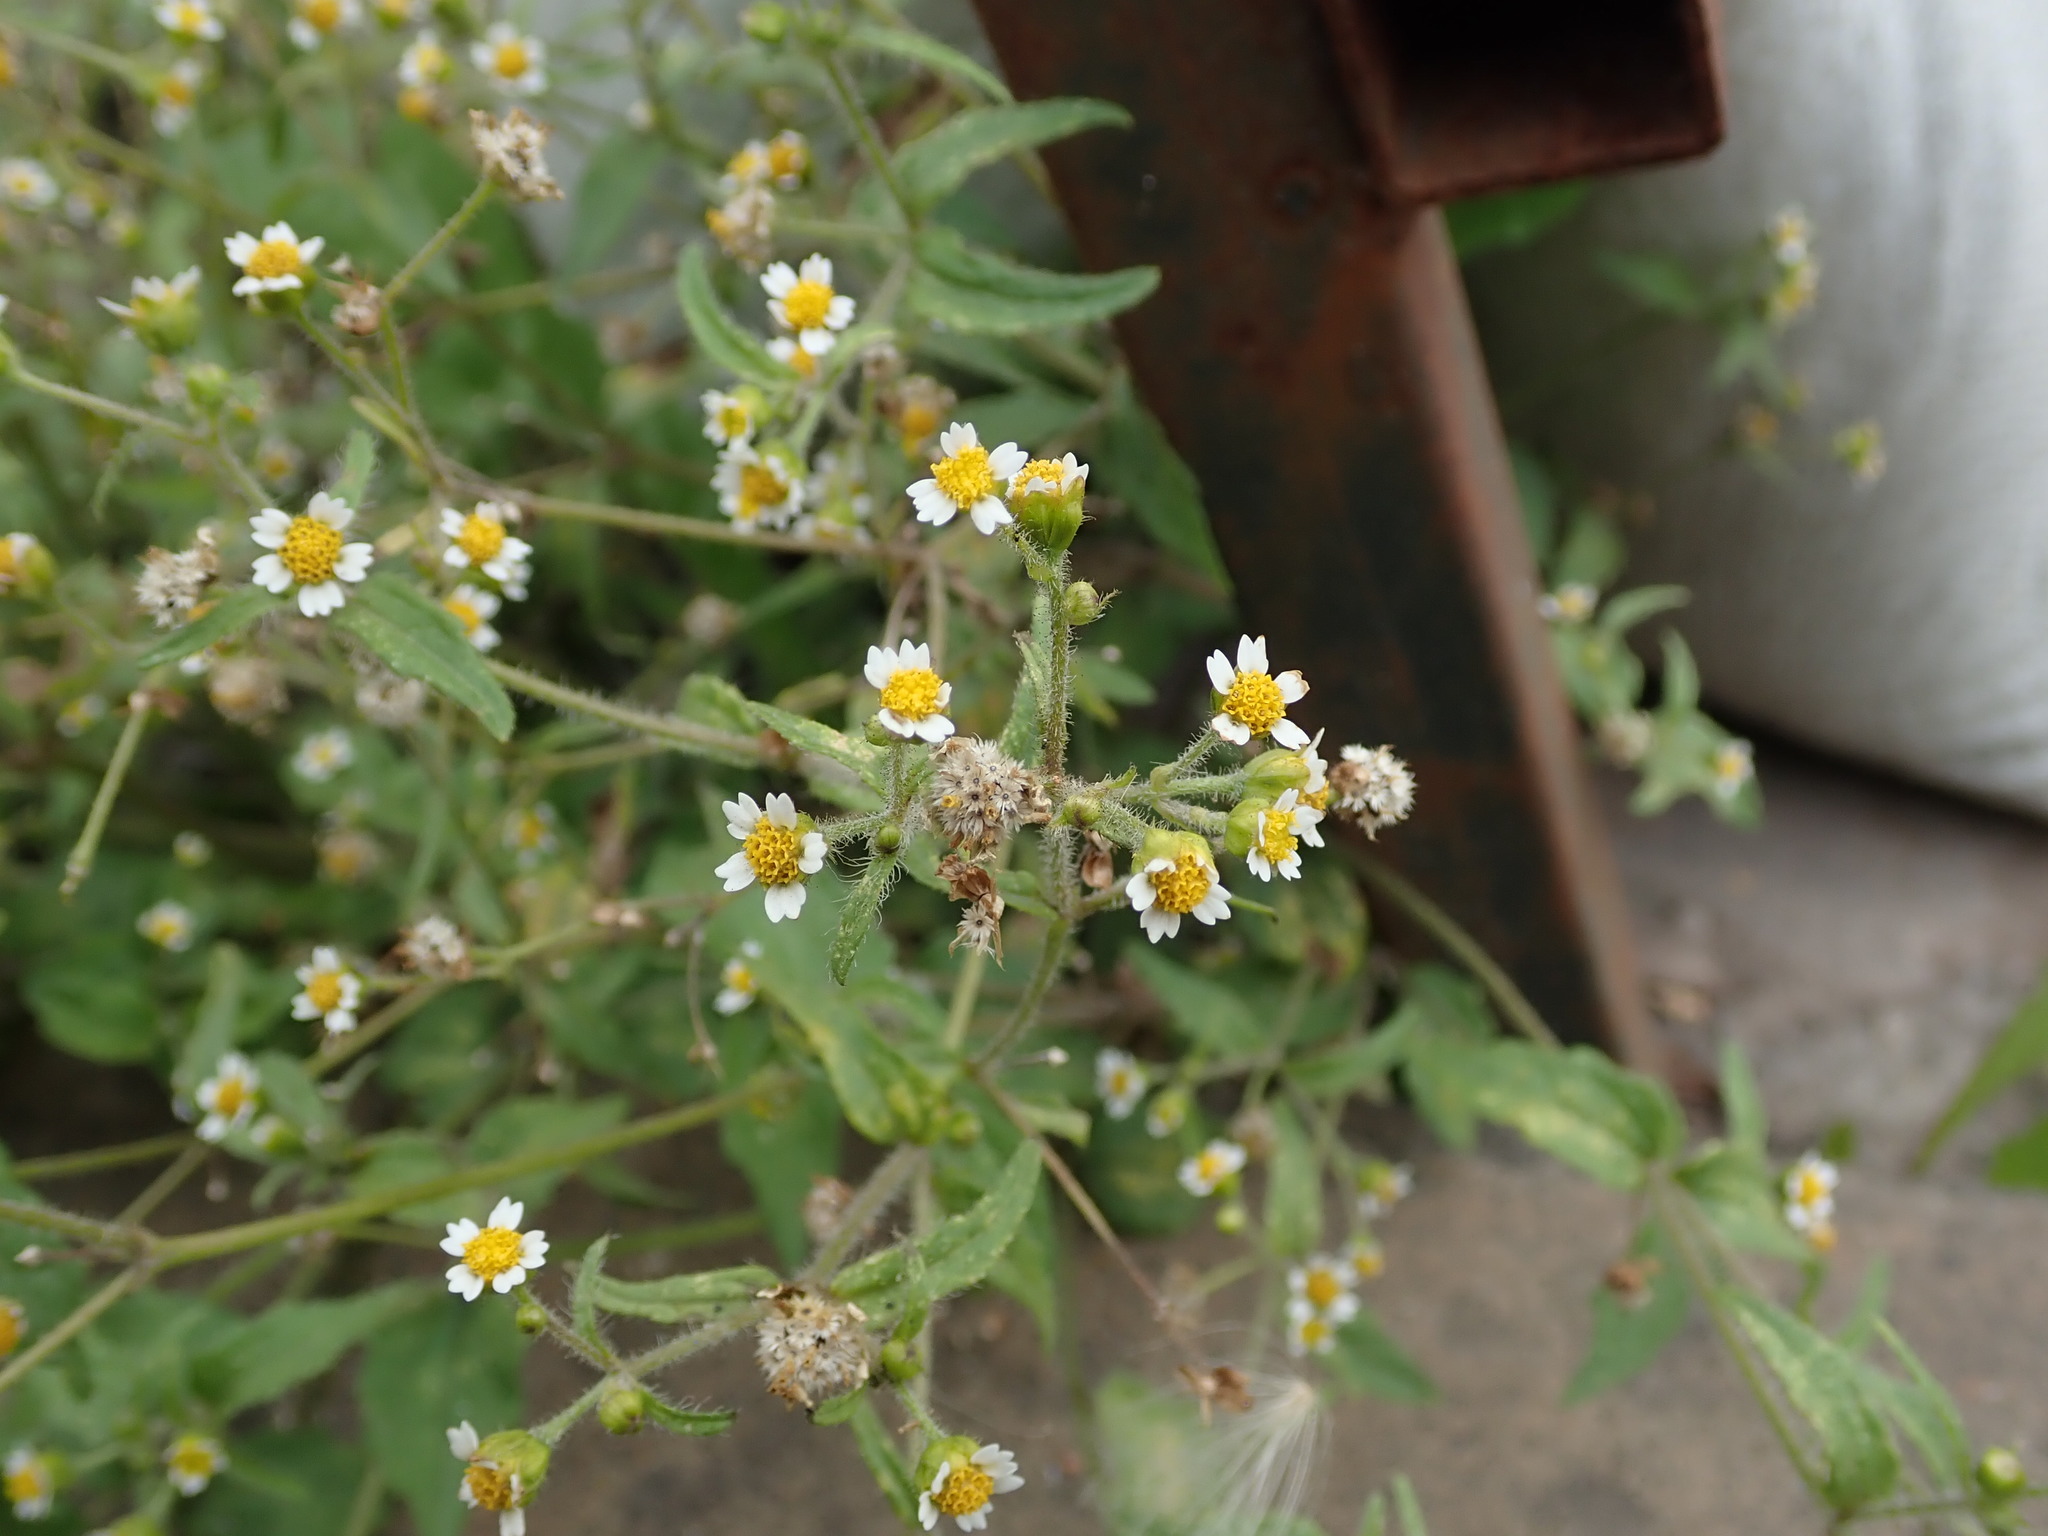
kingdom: Plantae
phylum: Tracheophyta
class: Magnoliopsida
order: Asterales
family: Asteraceae
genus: Galinsoga
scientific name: Galinsoga quadriradiata
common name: Shaggy soldier
